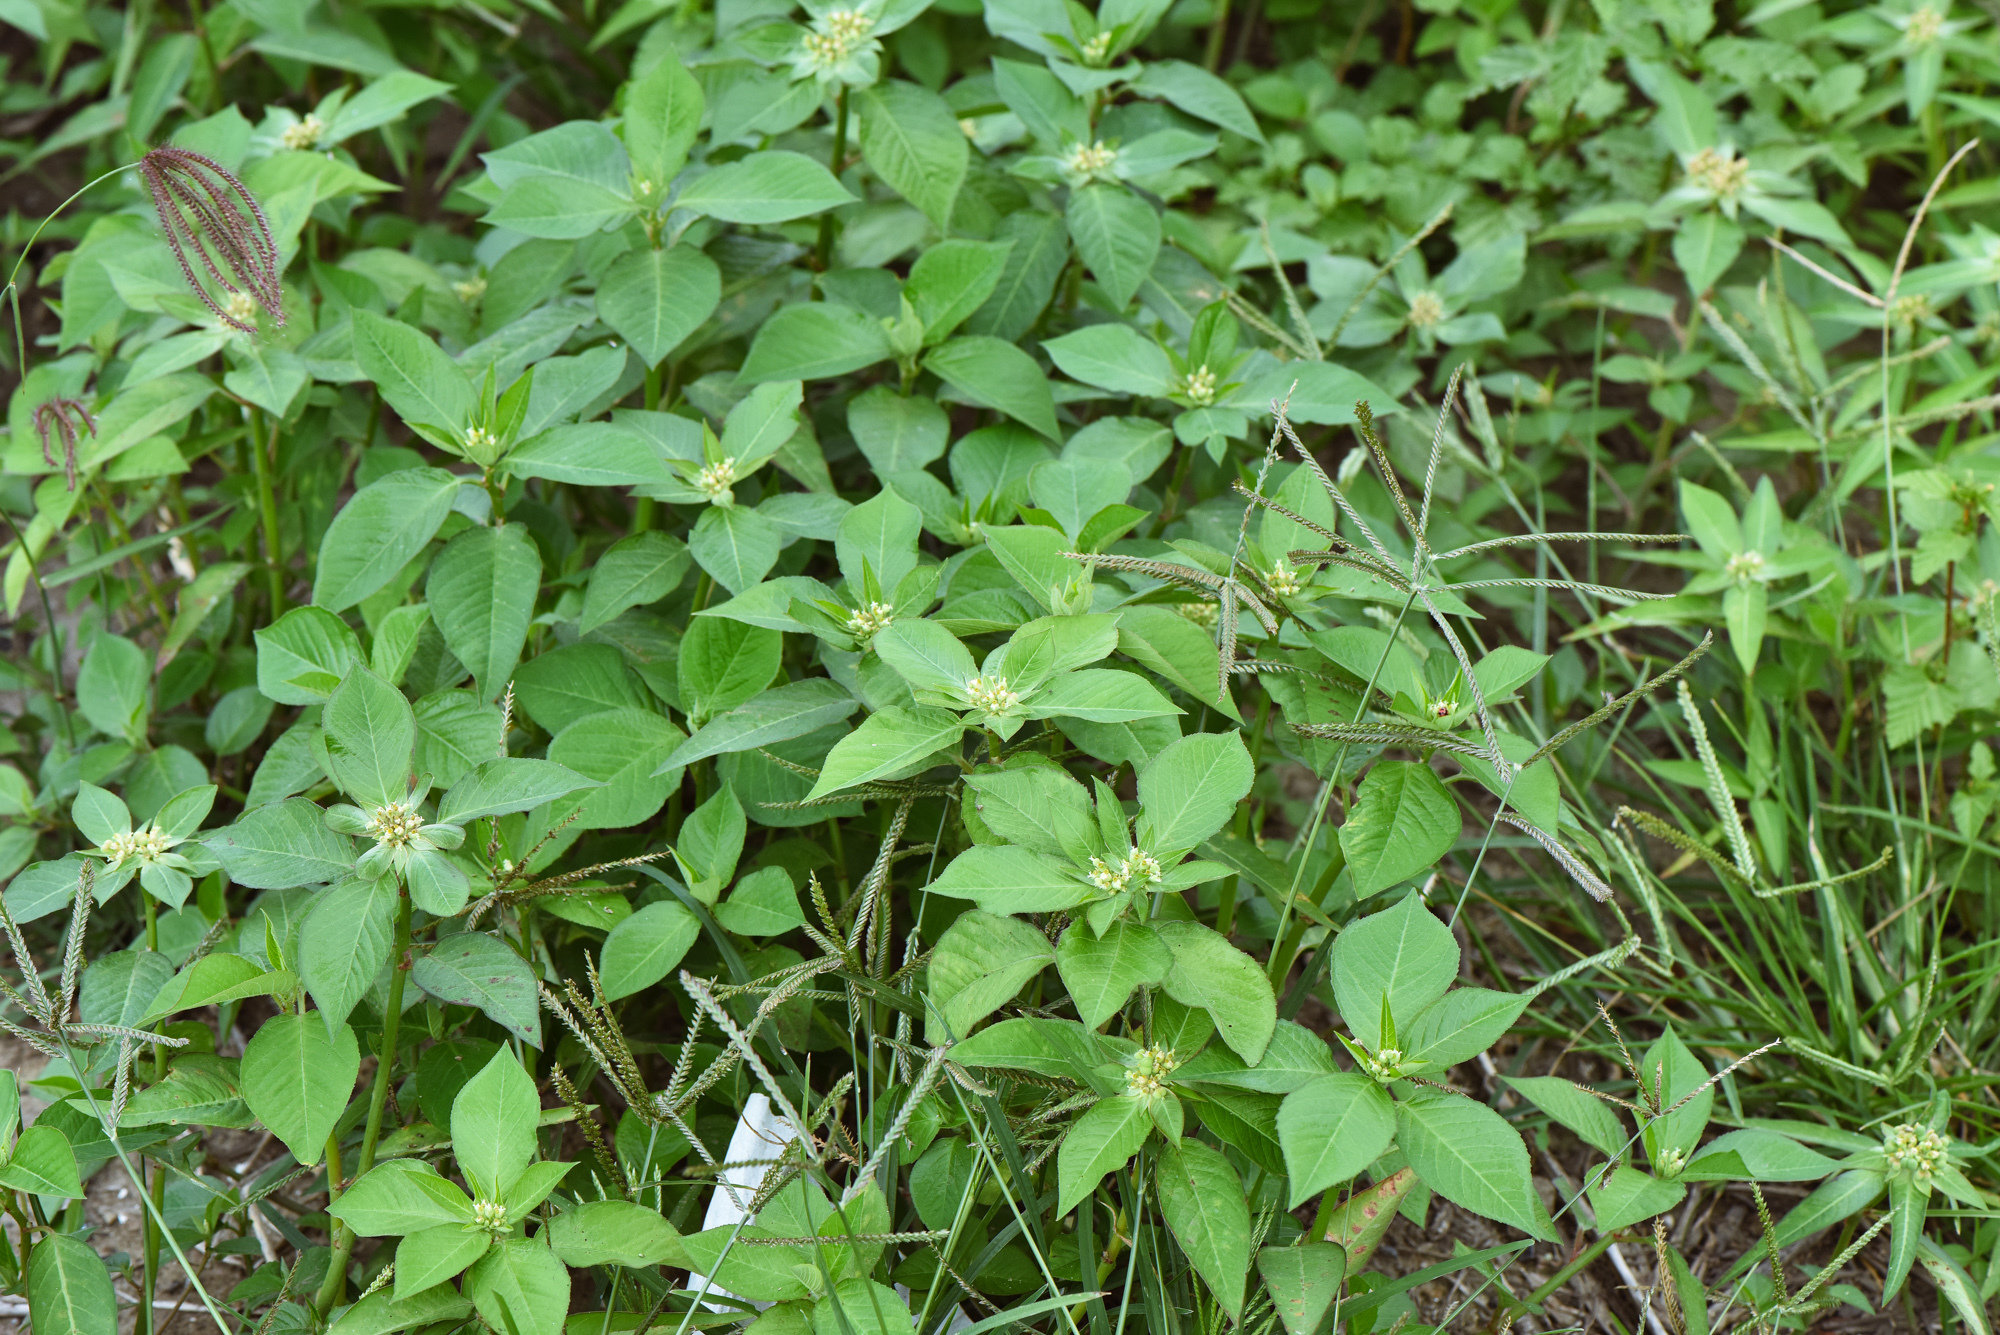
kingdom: Plantae
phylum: Tracheophyta
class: Magnoliopsida
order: Malpighiales
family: Euphorbiaceae
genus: Euphorbia
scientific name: Euphorbia heterophylla
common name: Mexican fireplant
